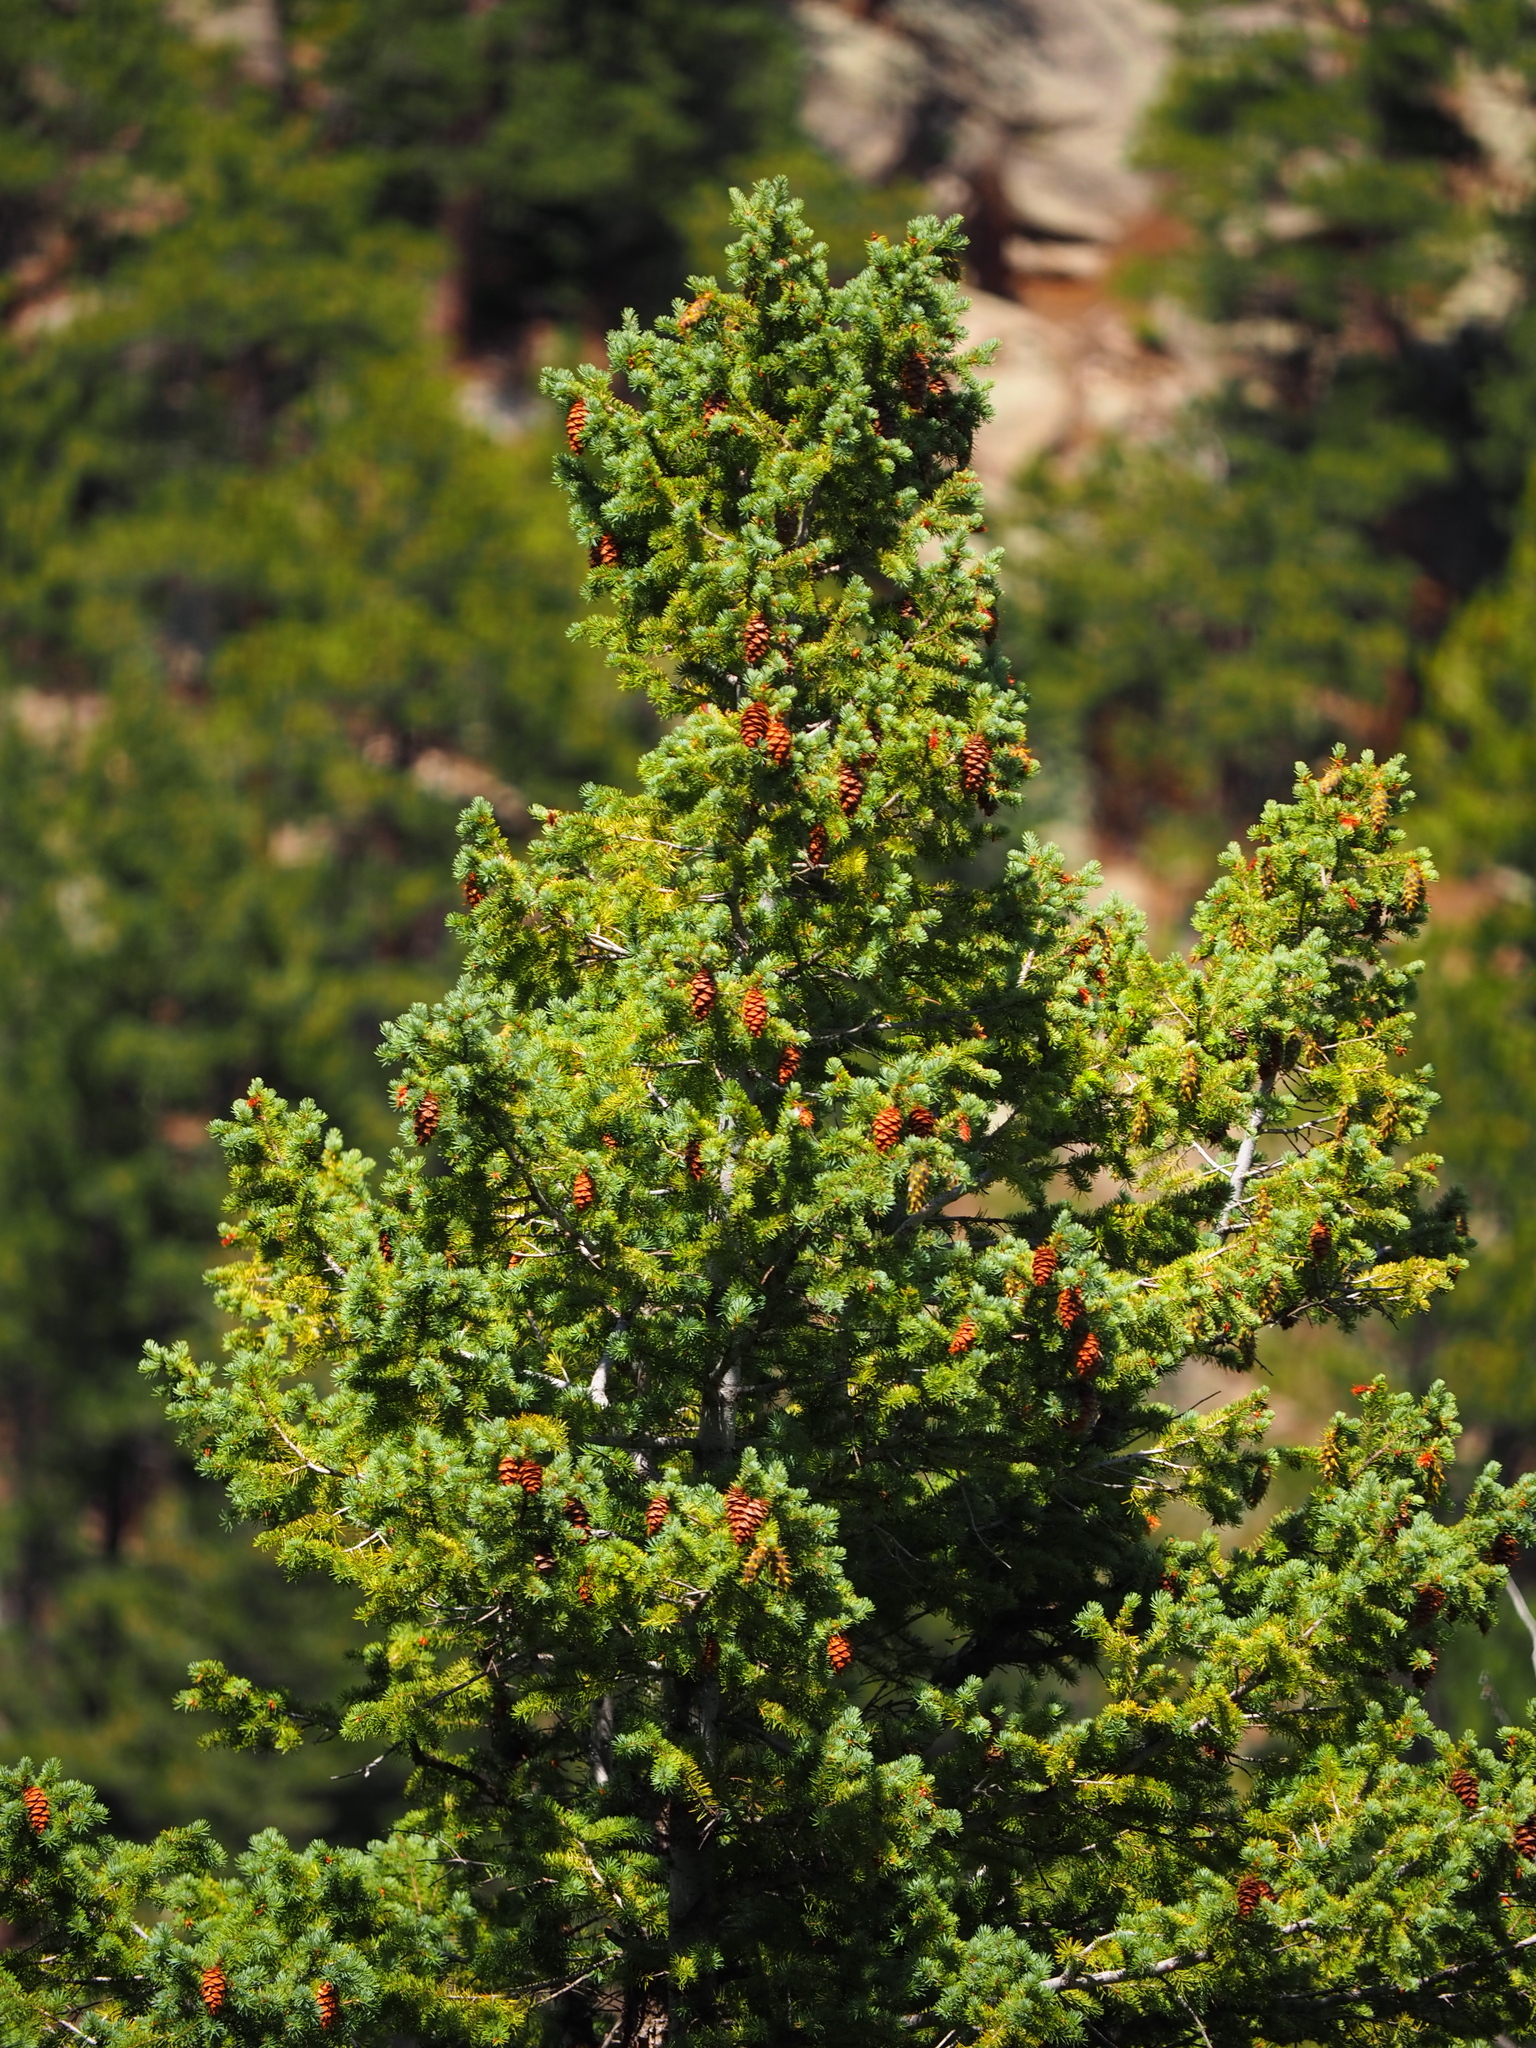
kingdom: Plantae
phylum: Tracheophyta
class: Pinopsida
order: Pinales
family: Pinaceae
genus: Pseudotsuga
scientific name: Pseudotsuga menziesii
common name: Douglas fir
